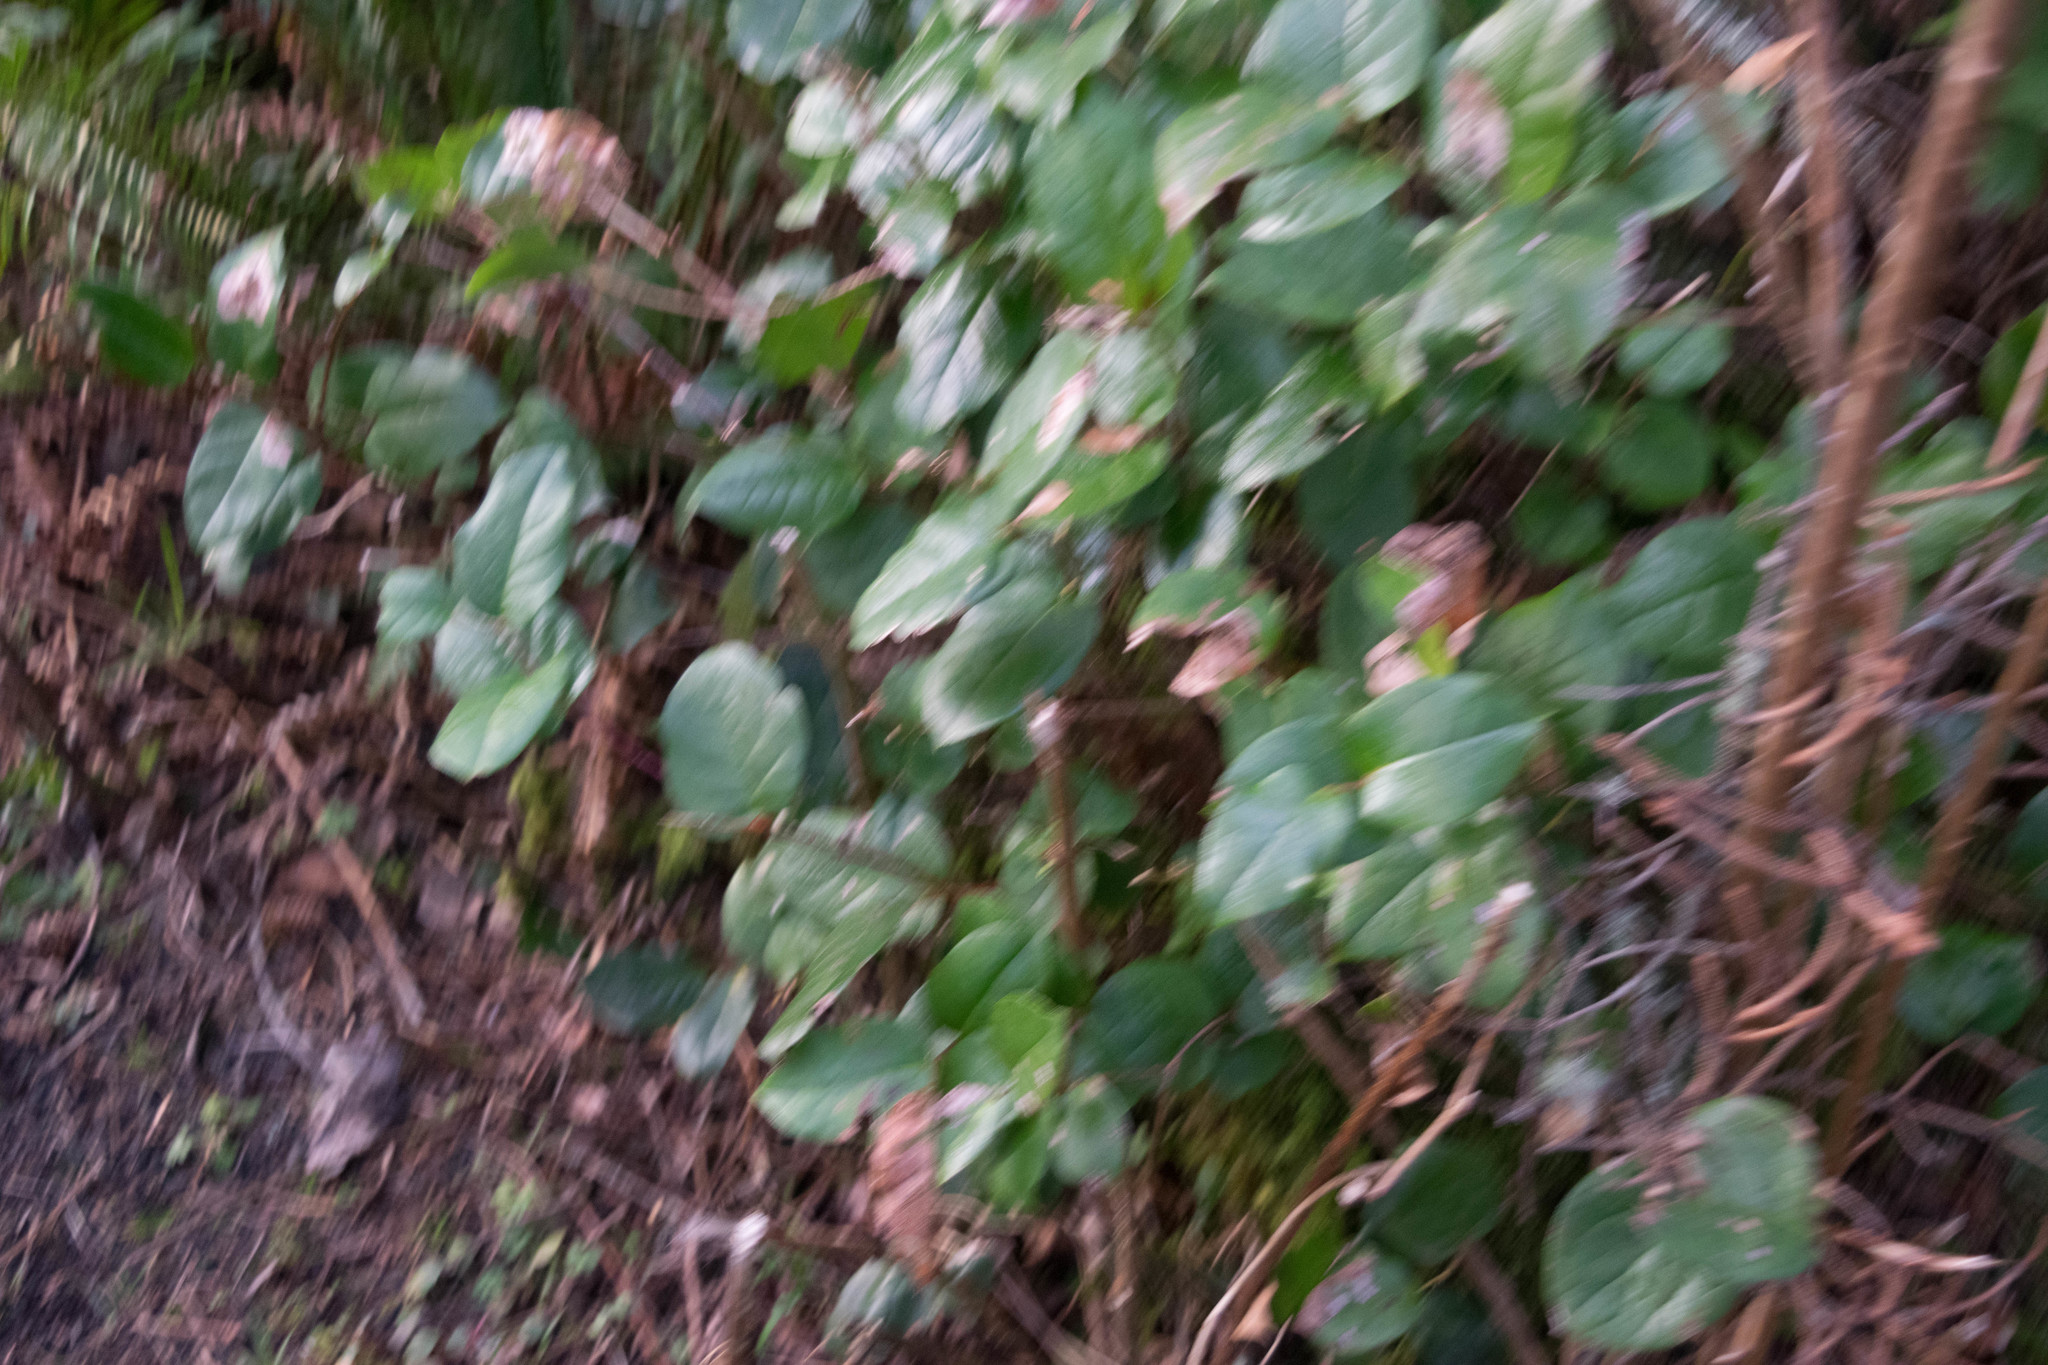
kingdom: Plantae
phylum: Tracheophyta
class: Magnoliopsida
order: Ericales
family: Ericaceae
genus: Gaultheria
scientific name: Gaultheria shallon
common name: Shallon
